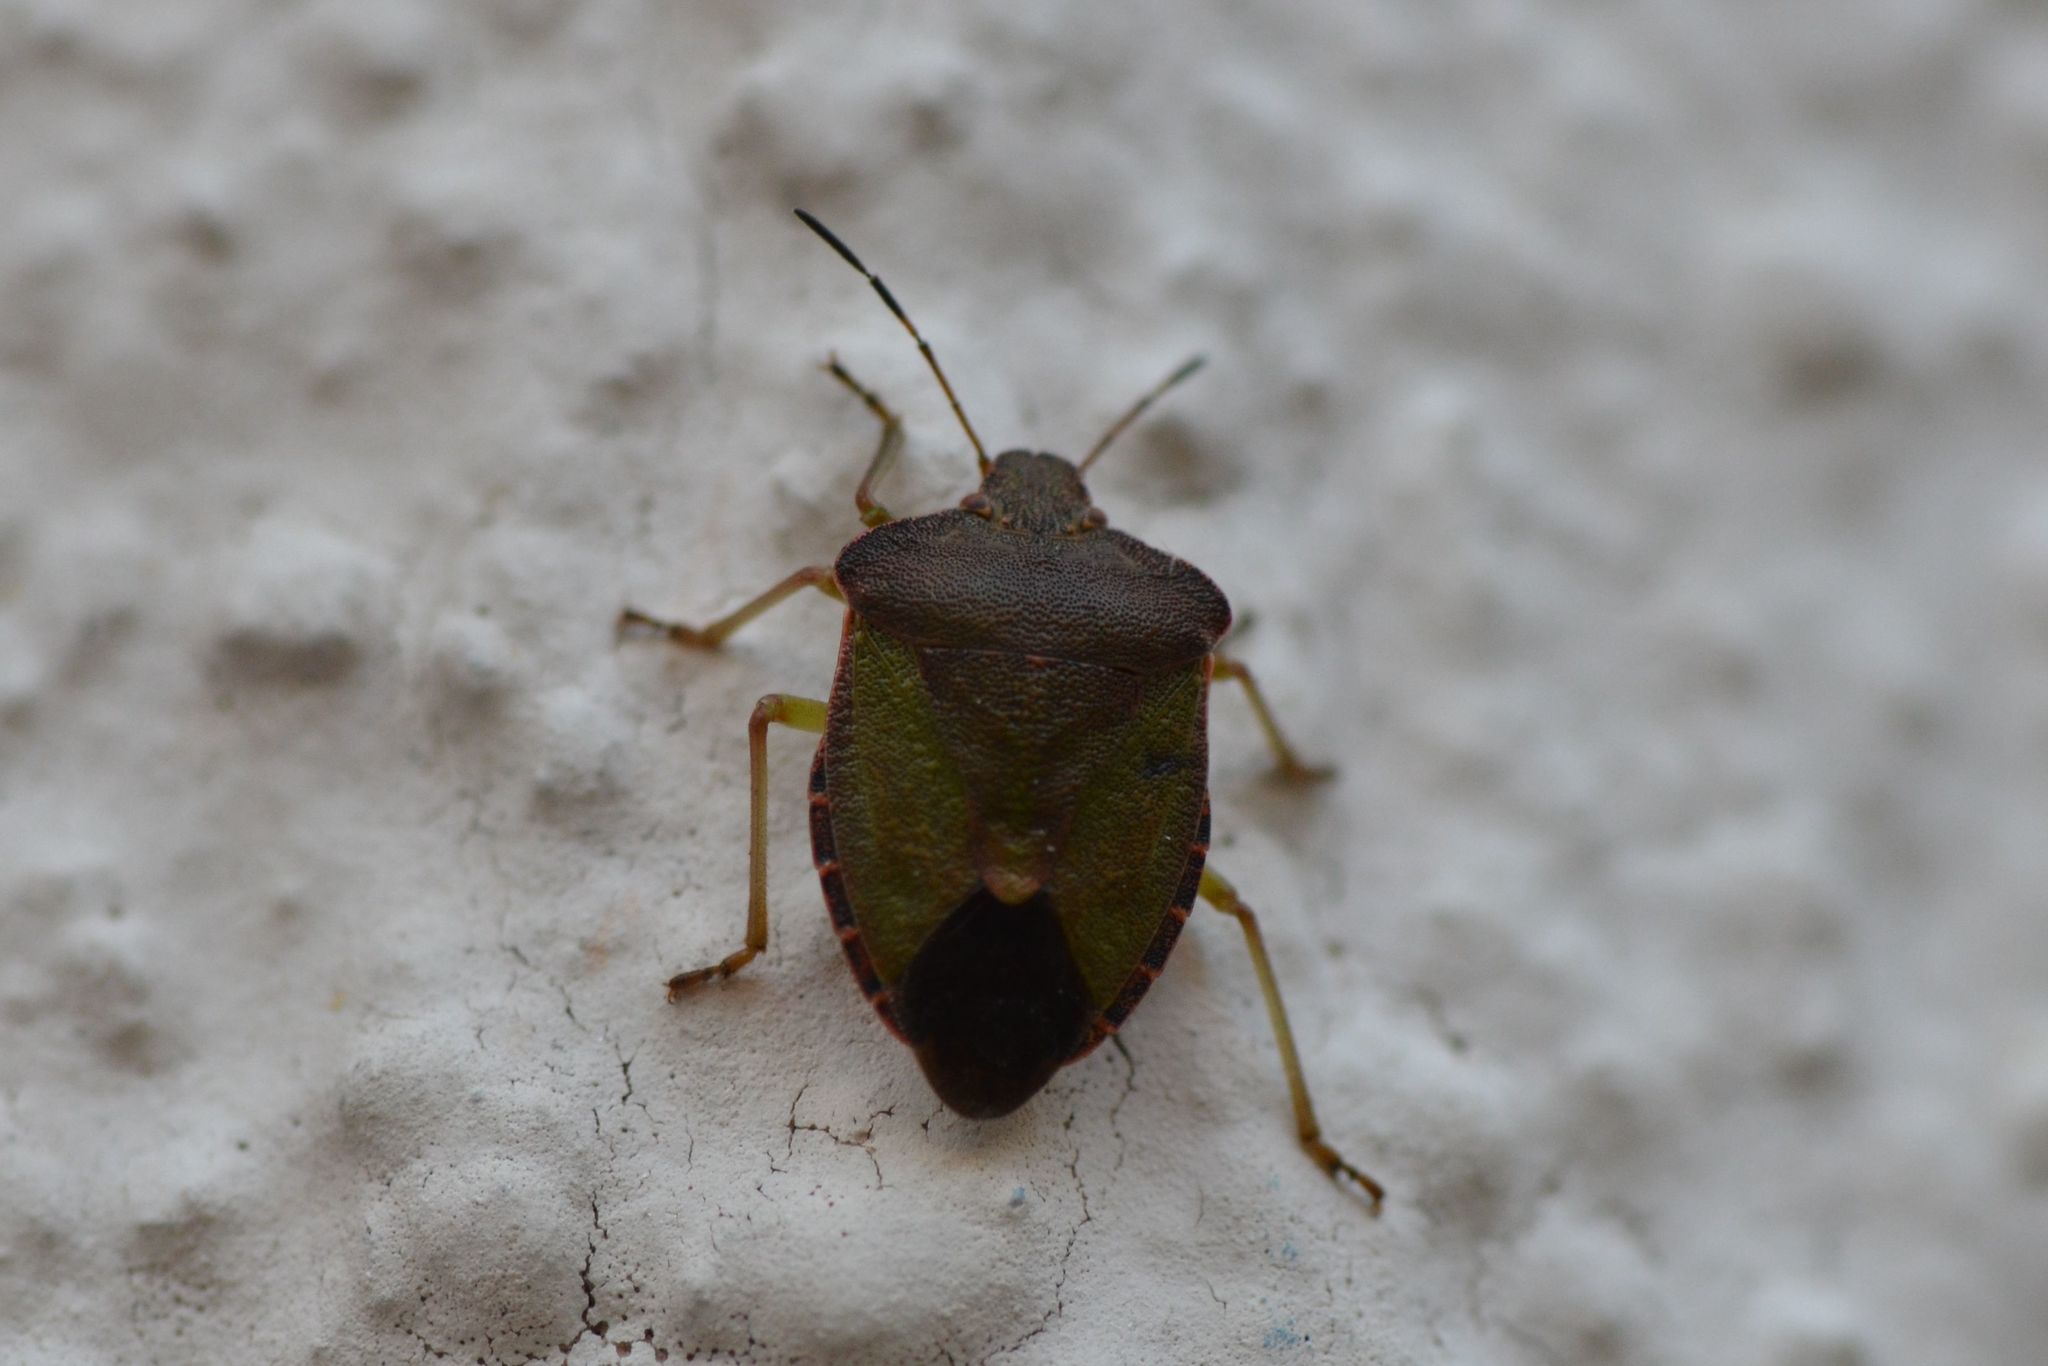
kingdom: Animalia
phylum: Arthropoda
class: Insecta
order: Hemiptera
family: Pentatomidae
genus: Palomena
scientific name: Palomena prasina
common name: Green shieldbug
